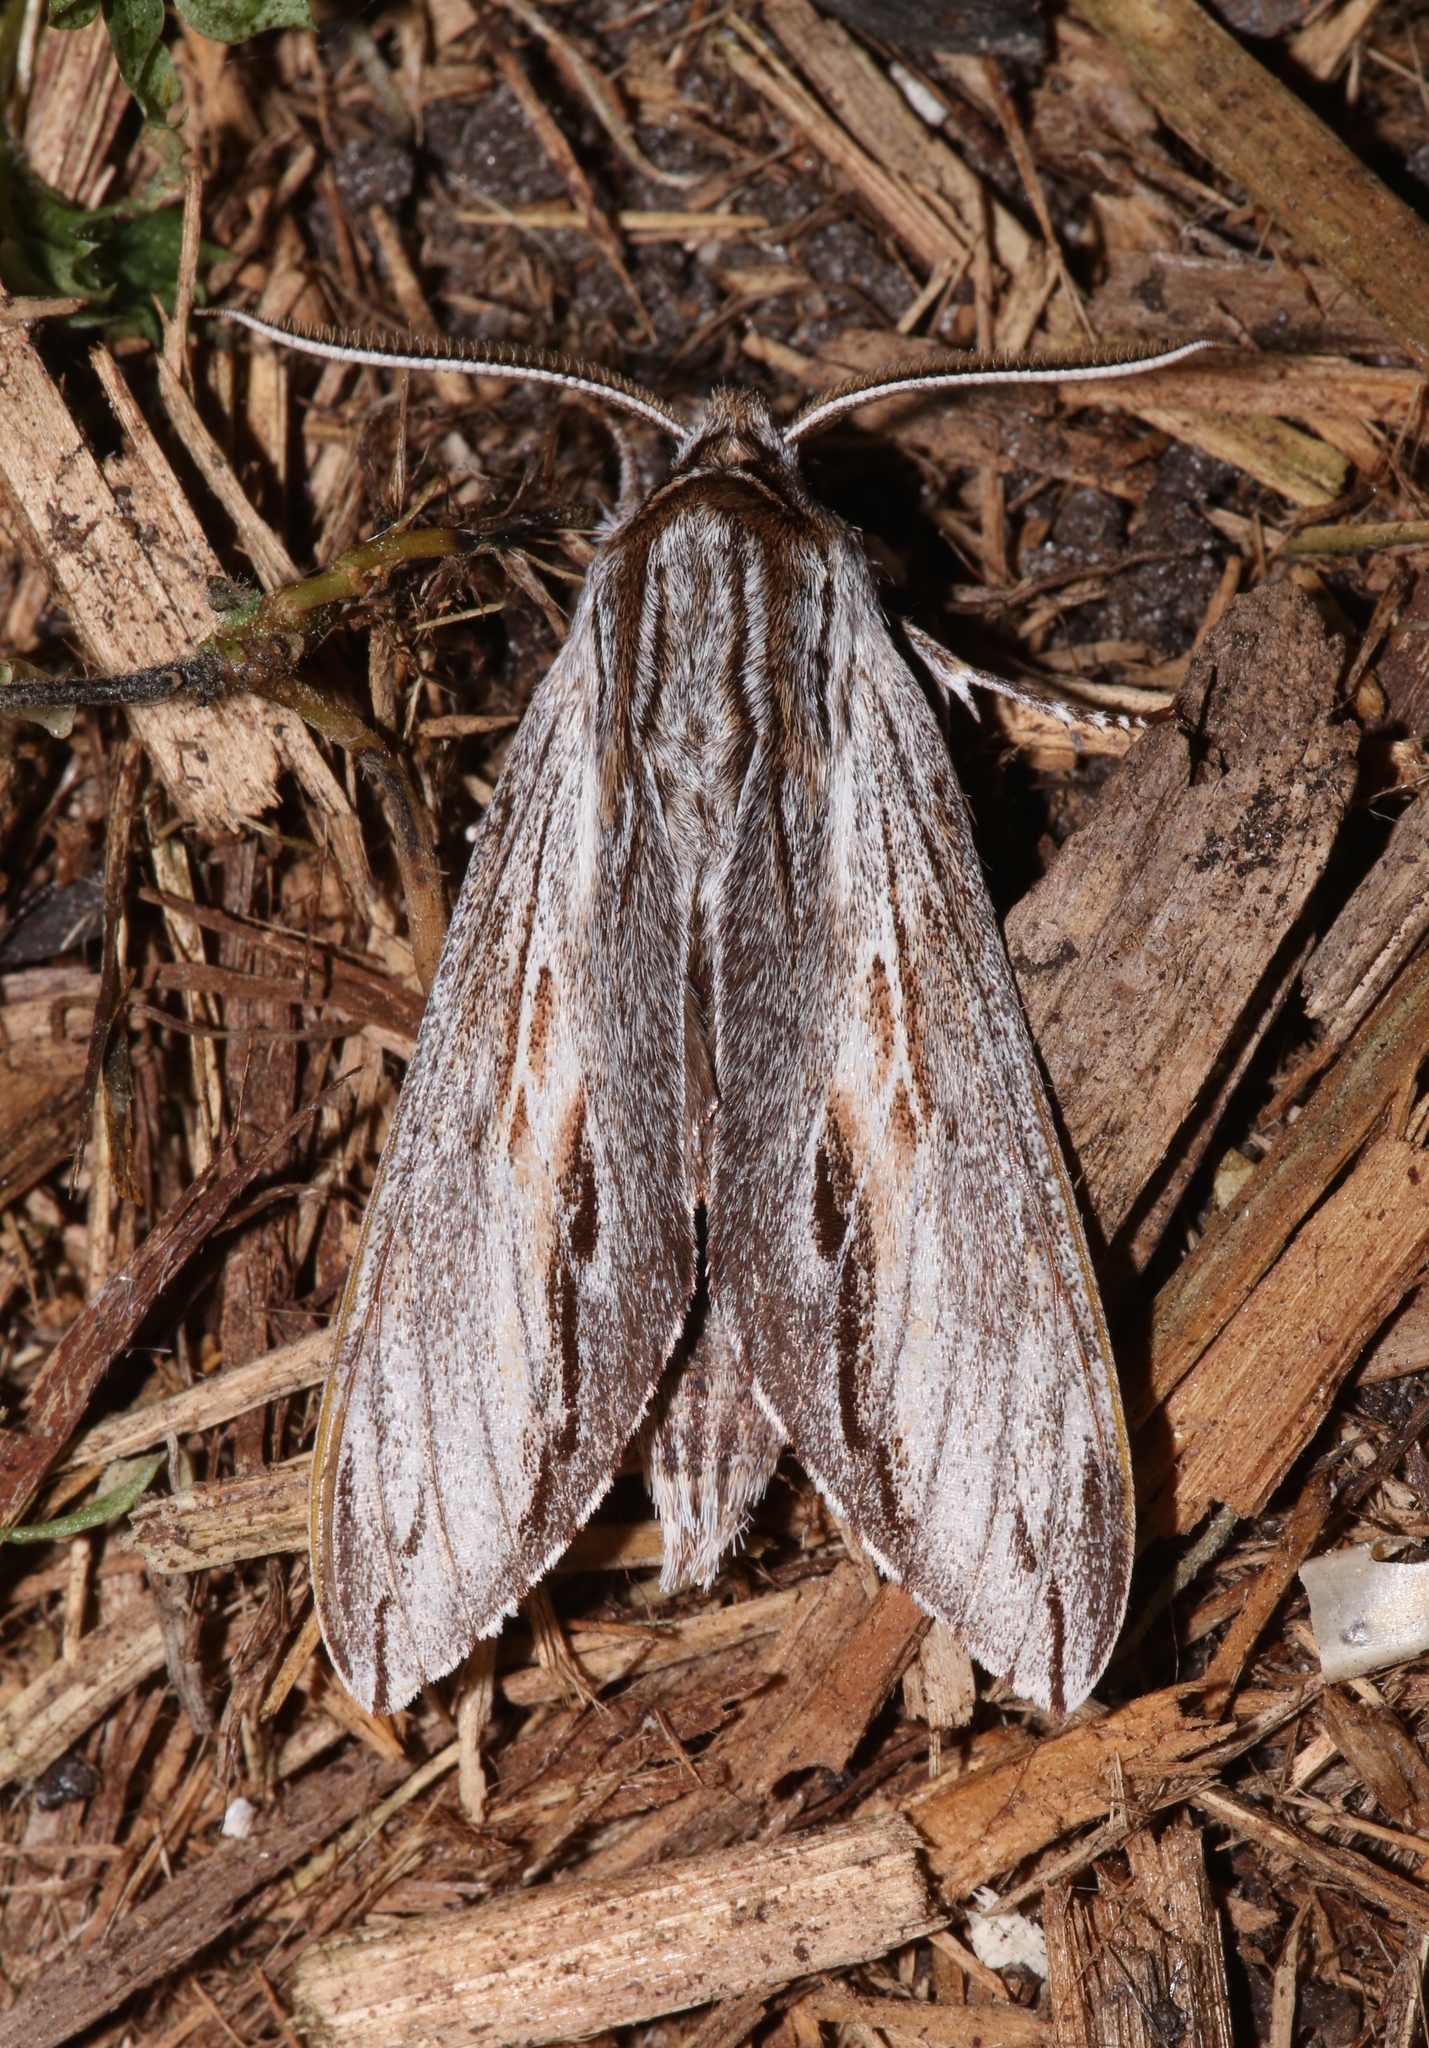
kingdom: Animalia
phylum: Arthropoda
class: Insecta
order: Lepidoptera
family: Sphingidae
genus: Isoparce
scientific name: Isoparce cupressi
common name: Cypress sphinx
